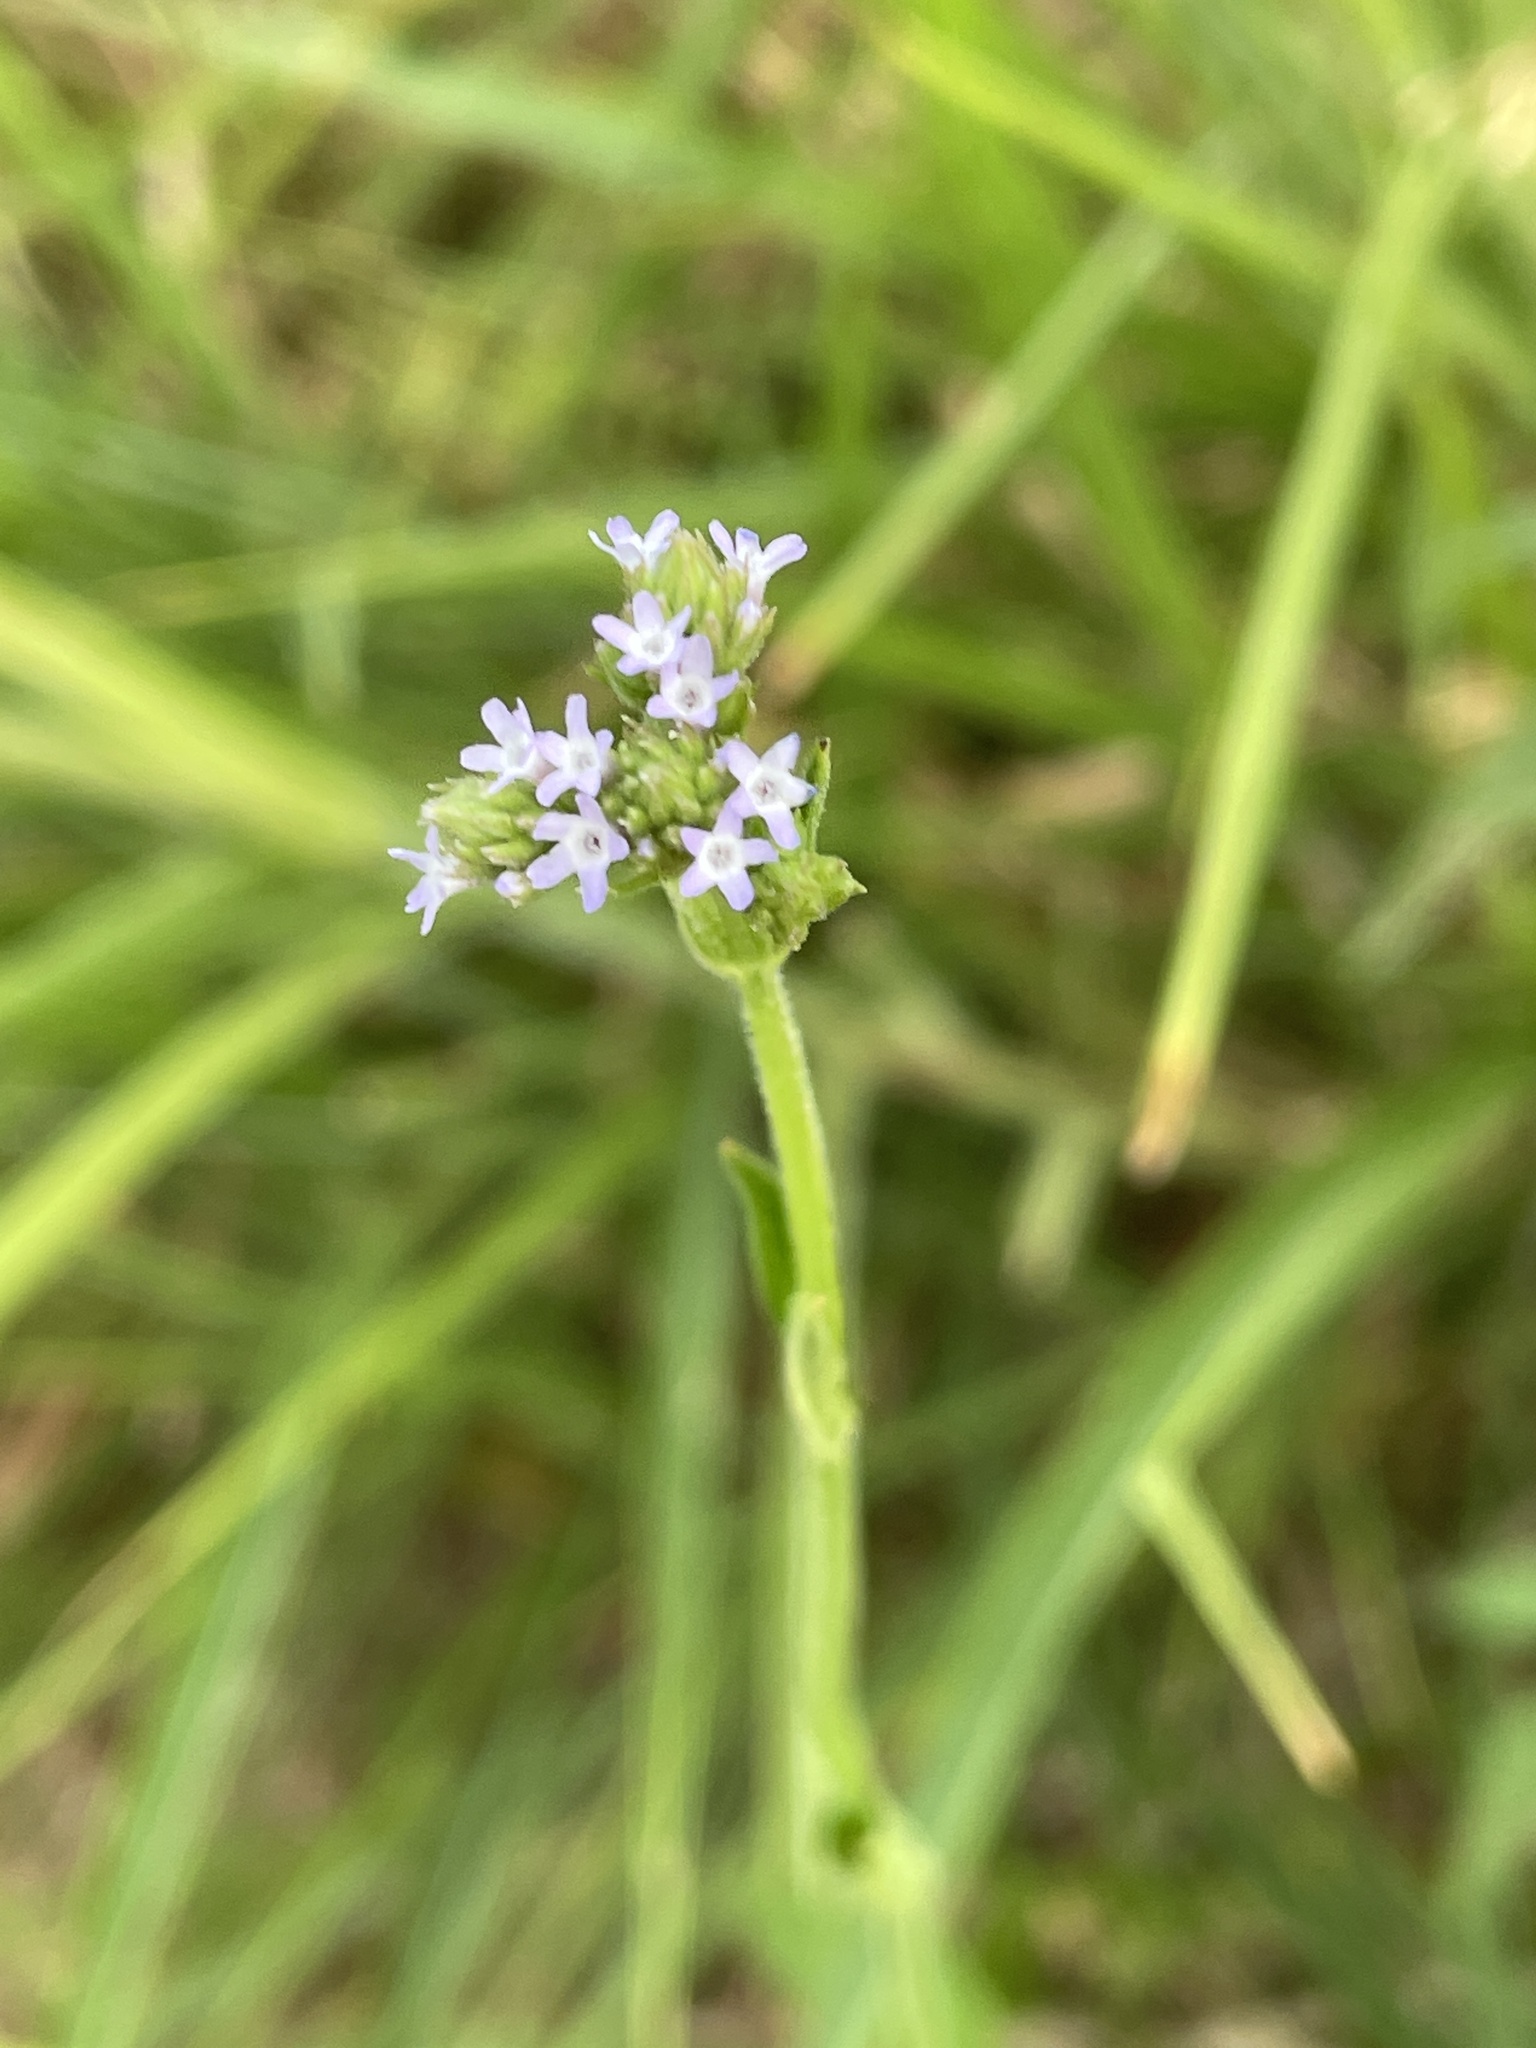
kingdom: Plantae
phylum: Tracheophyta
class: Magnoliopsida
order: Lamiales
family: Verbenaceae
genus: Verbena
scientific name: Verbena brasiliensis
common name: Brazilian vervain
